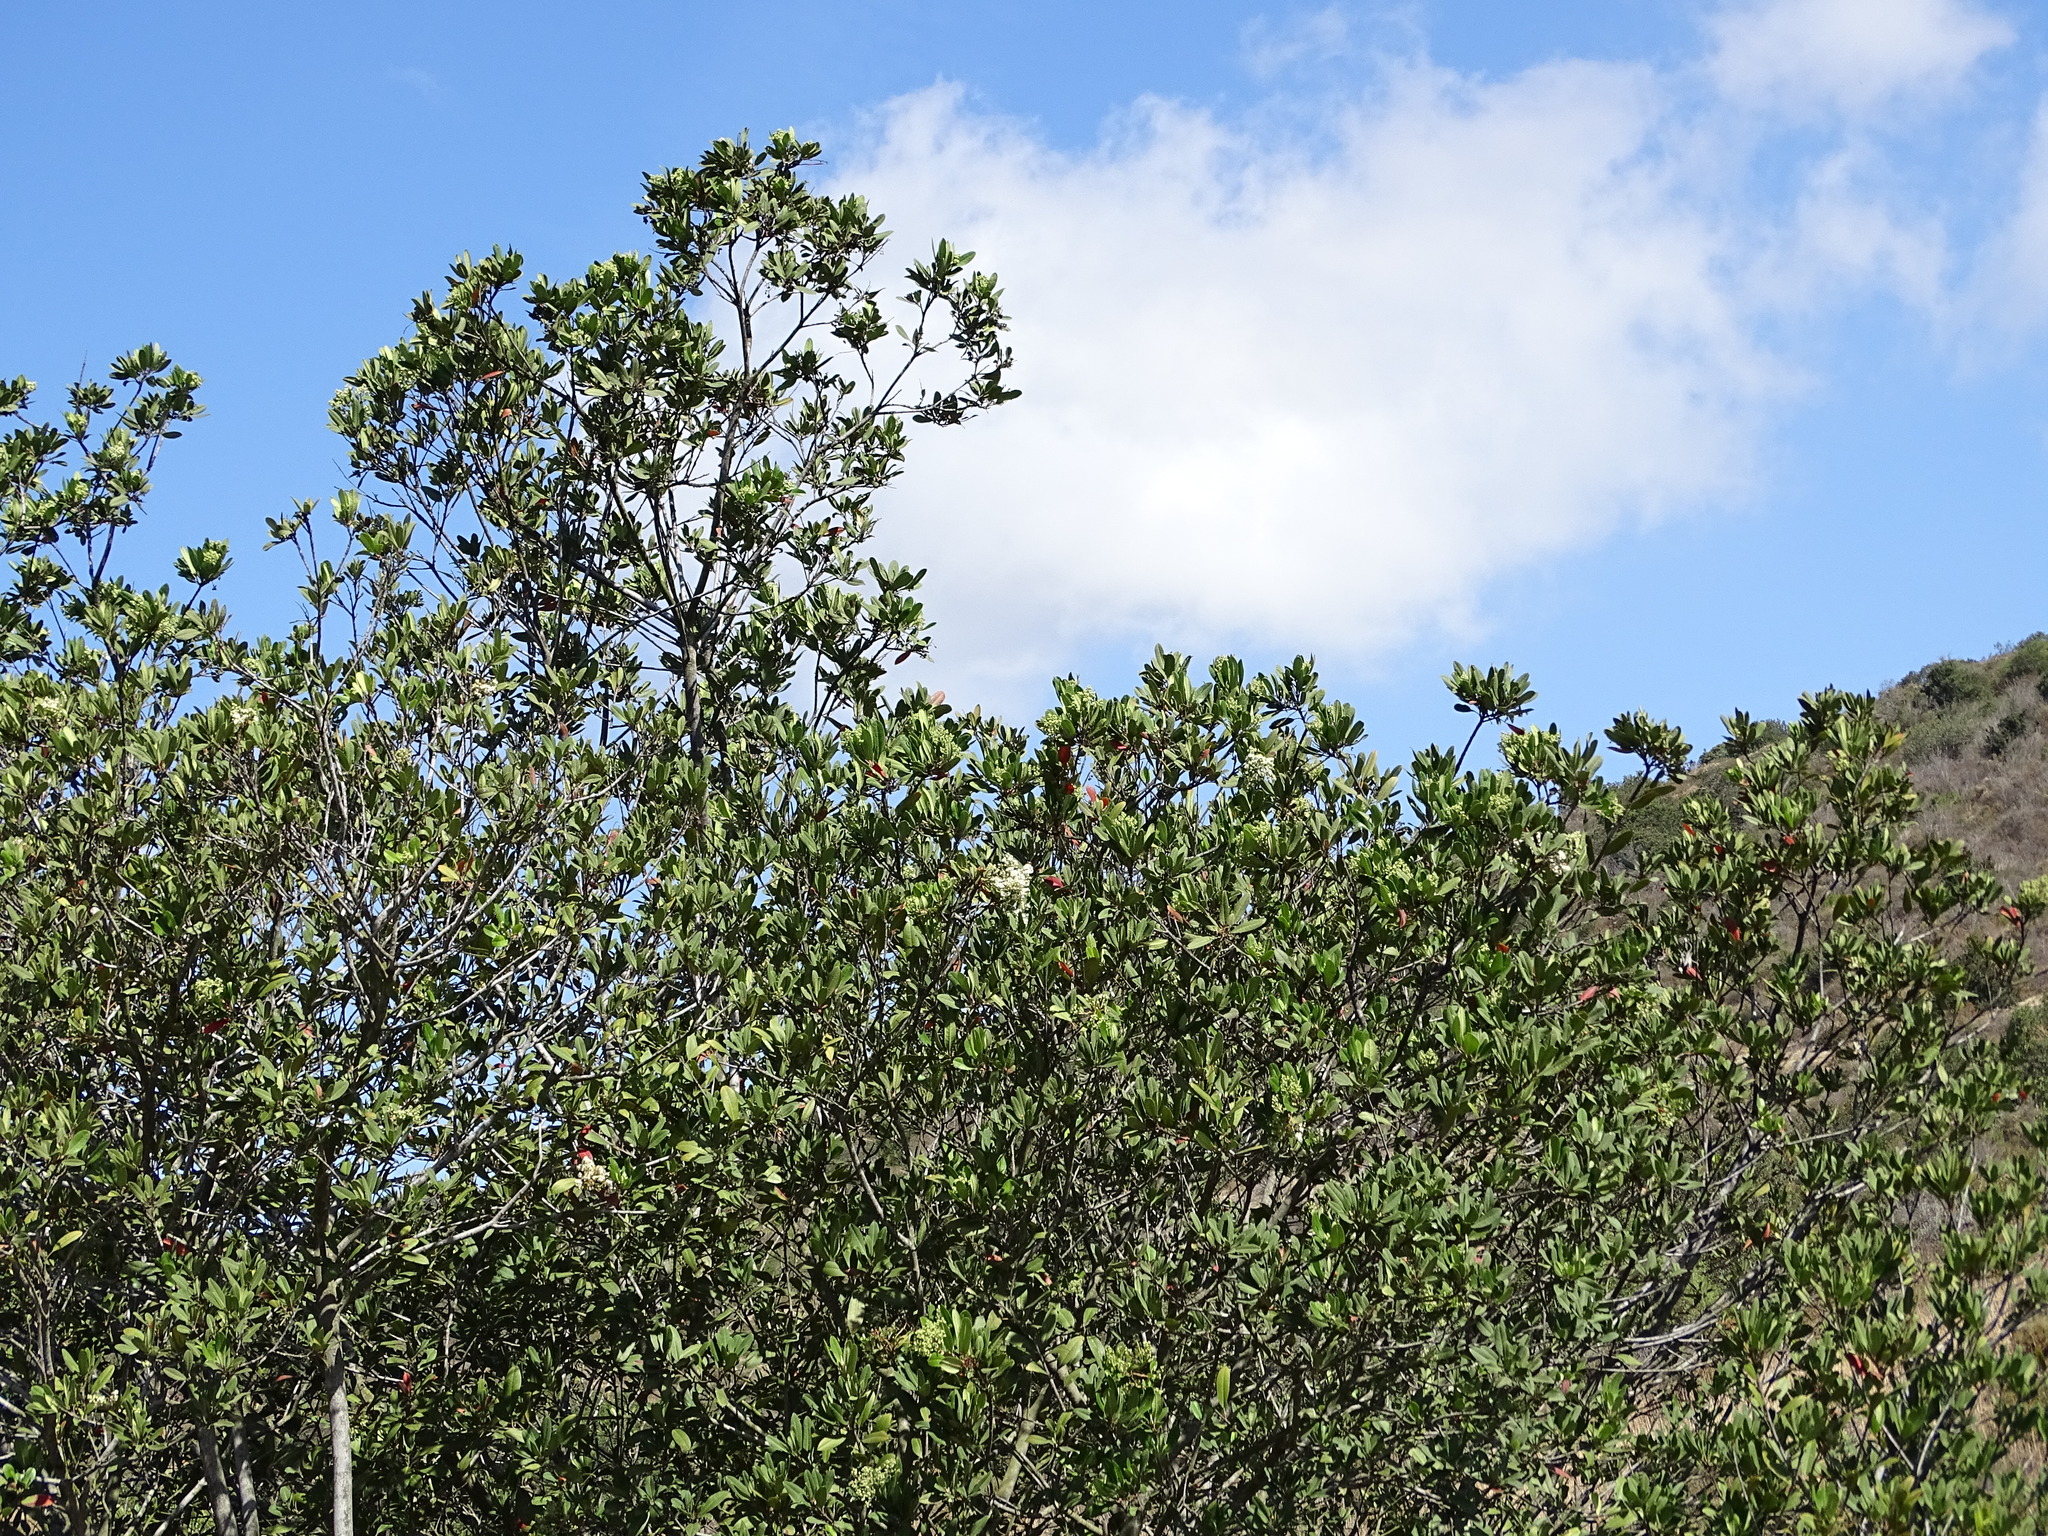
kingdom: Plantae
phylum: Tracheophyta
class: Magnoliopsida
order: Rosales
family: Rosaceae
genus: Heteromeles
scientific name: Heteromeles arbutifolia
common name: California-holly
